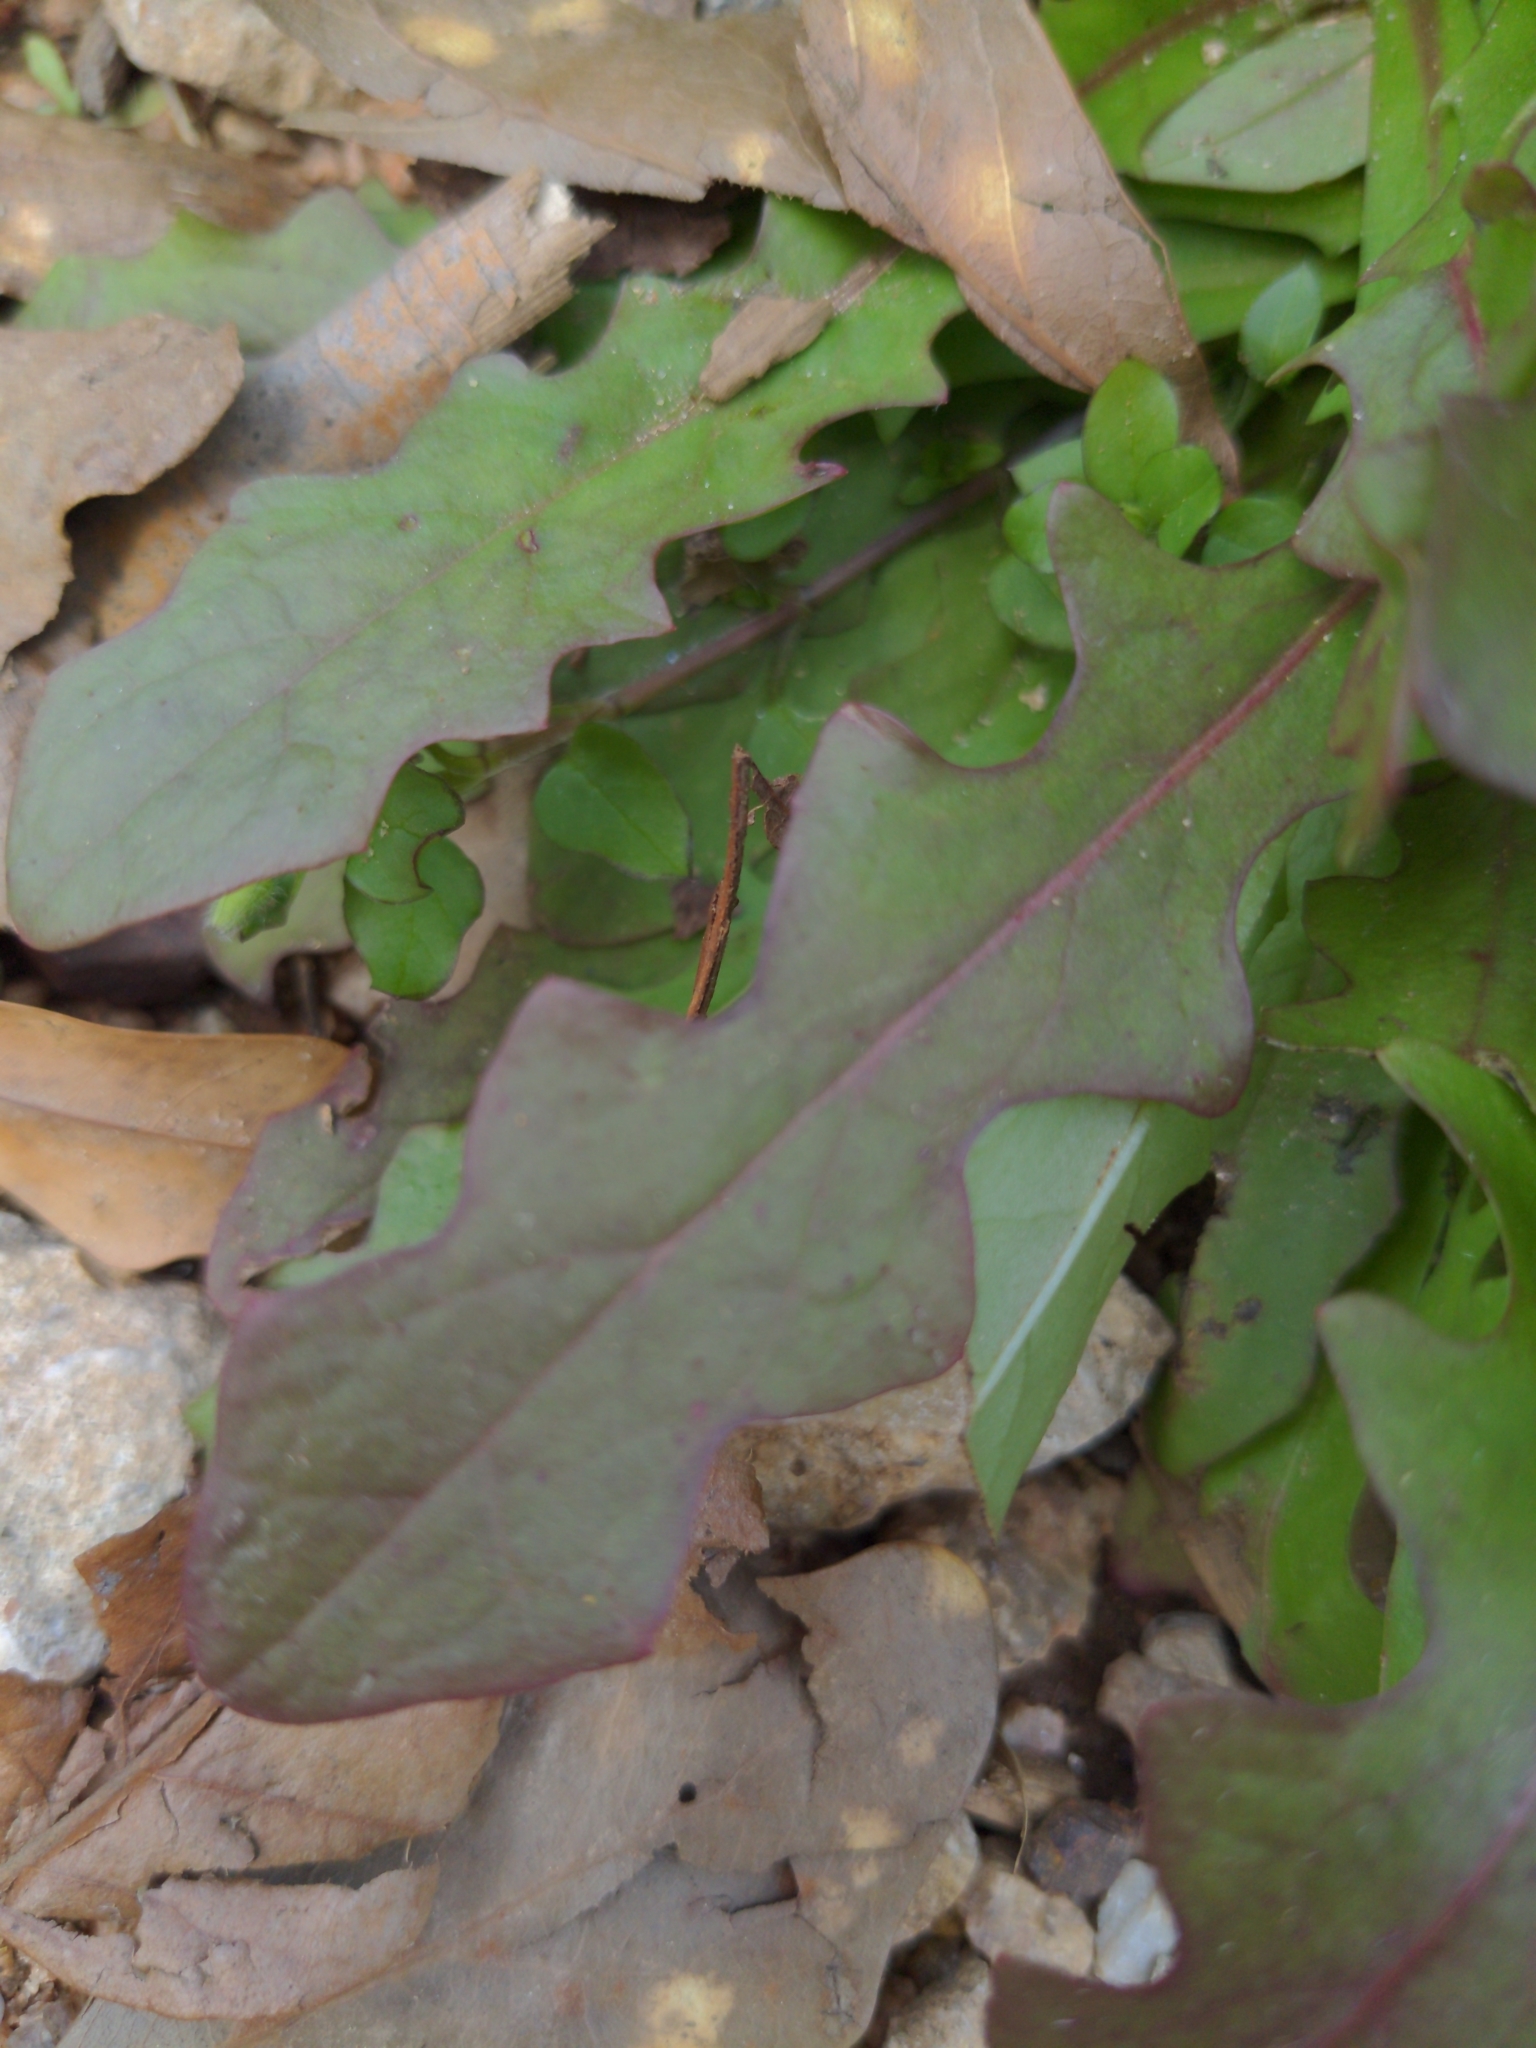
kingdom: Plantae
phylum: Tracheophyta
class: Magnoliopsida
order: Asterales
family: Asteraceae
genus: Hypochaeris
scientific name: Hypochaeris glabra
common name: Smooth catsear
